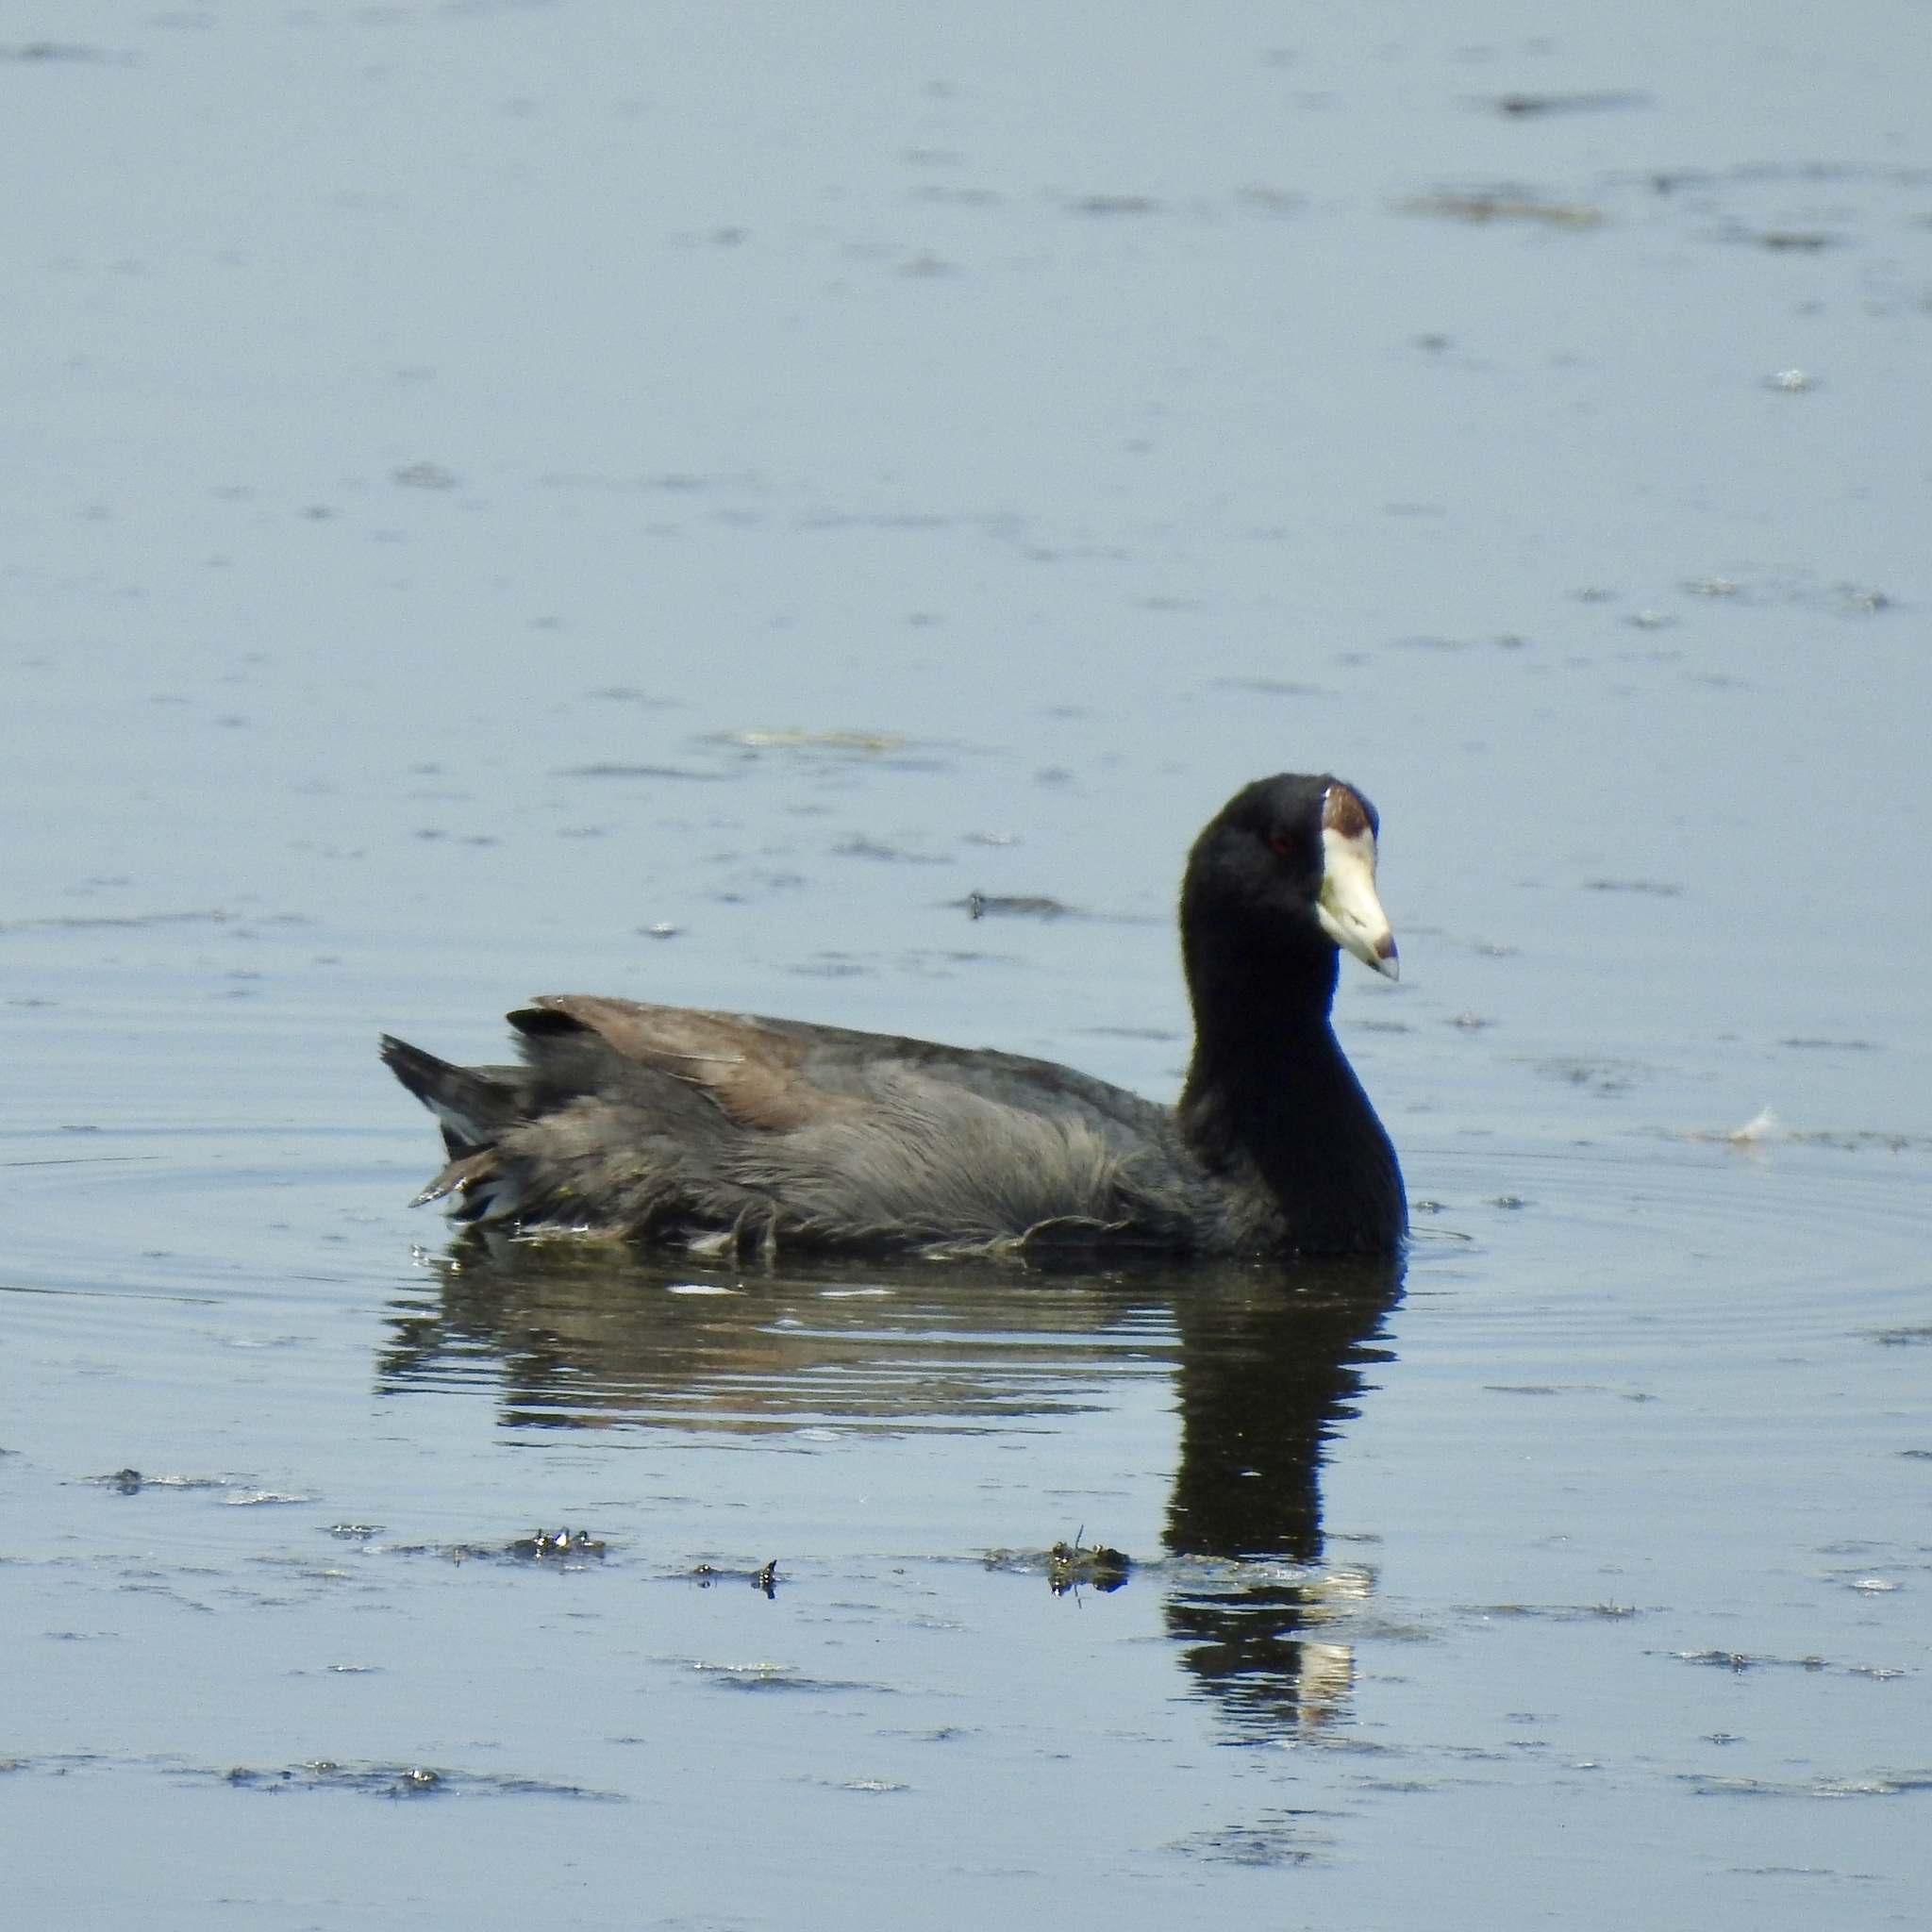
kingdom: Animalia
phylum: Chordata
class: Aves
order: Gruiformes
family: Rallidae
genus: Fulica
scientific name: Fulica americana
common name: American coot
